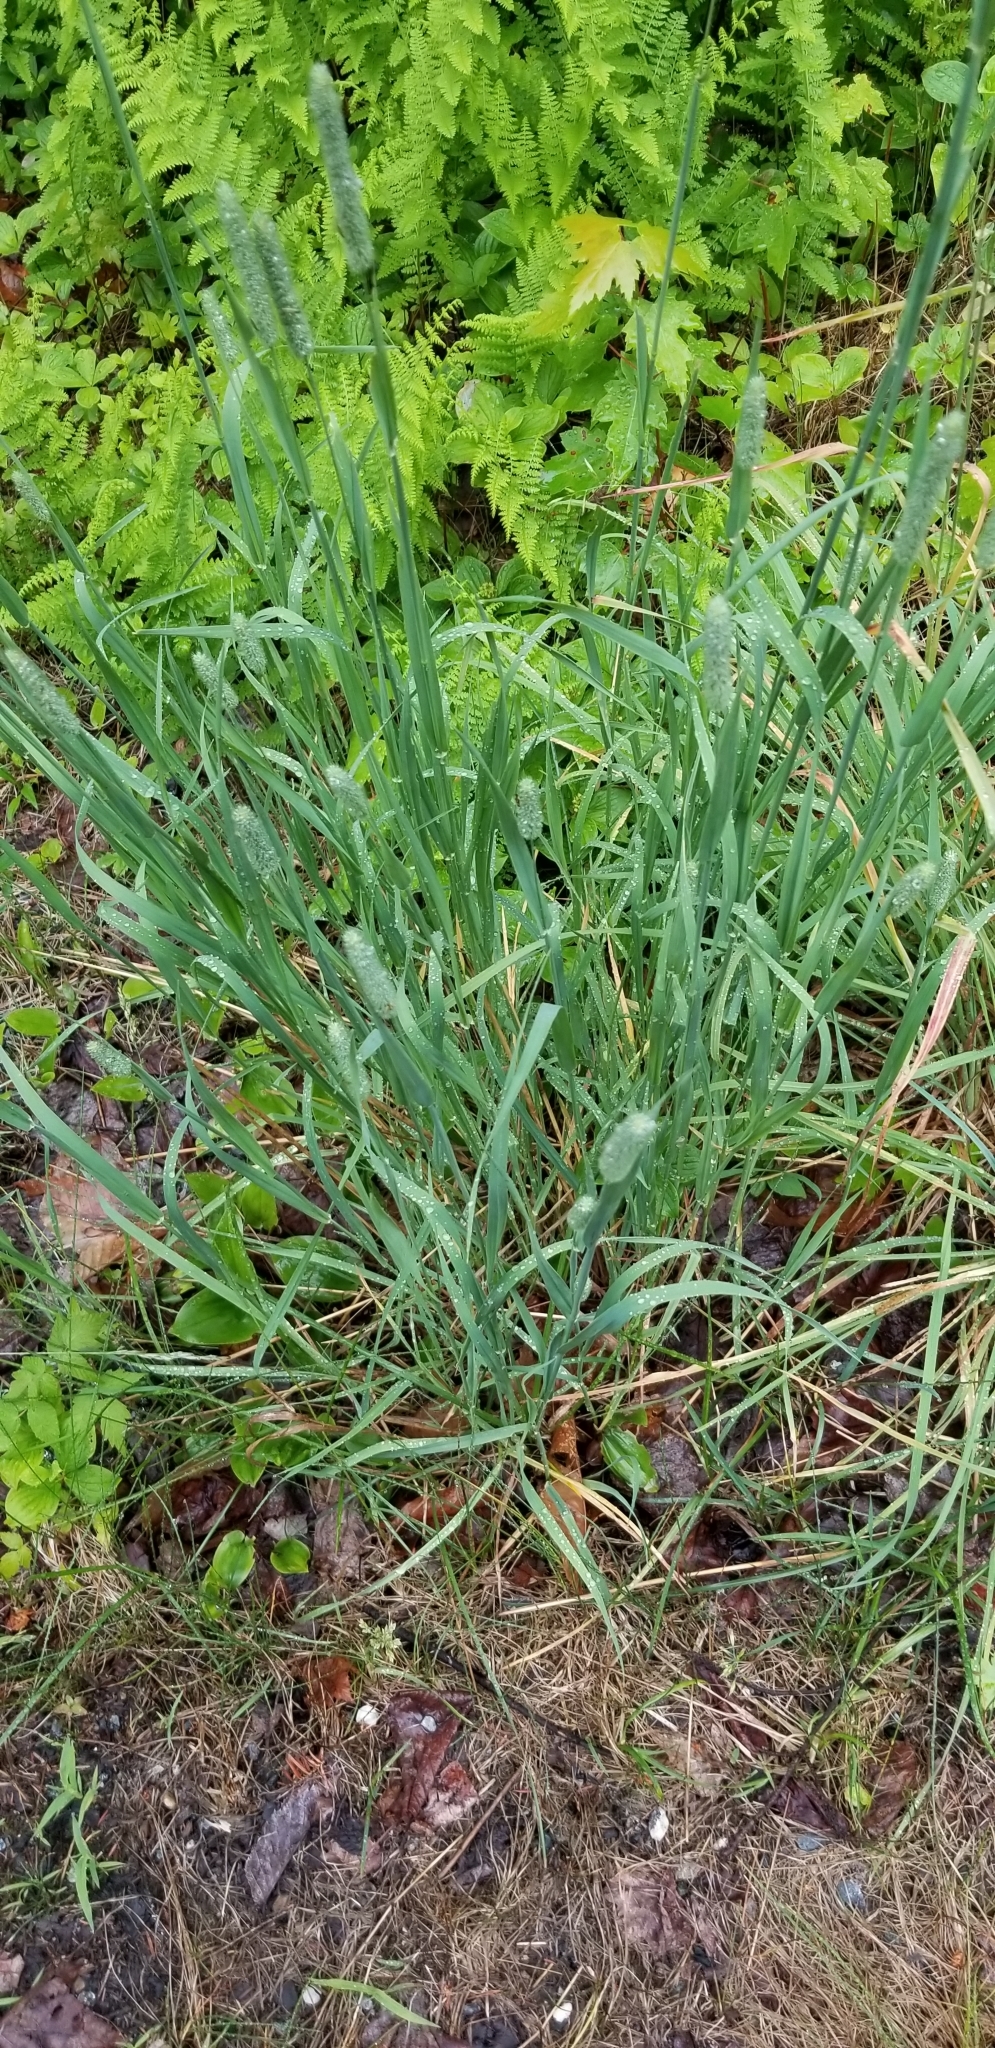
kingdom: Plantae
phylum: Tracheophyta
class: Liliopsida
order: Poales
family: Poaceae
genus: Phleum
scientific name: Phleum pratense
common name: Timothy grass
